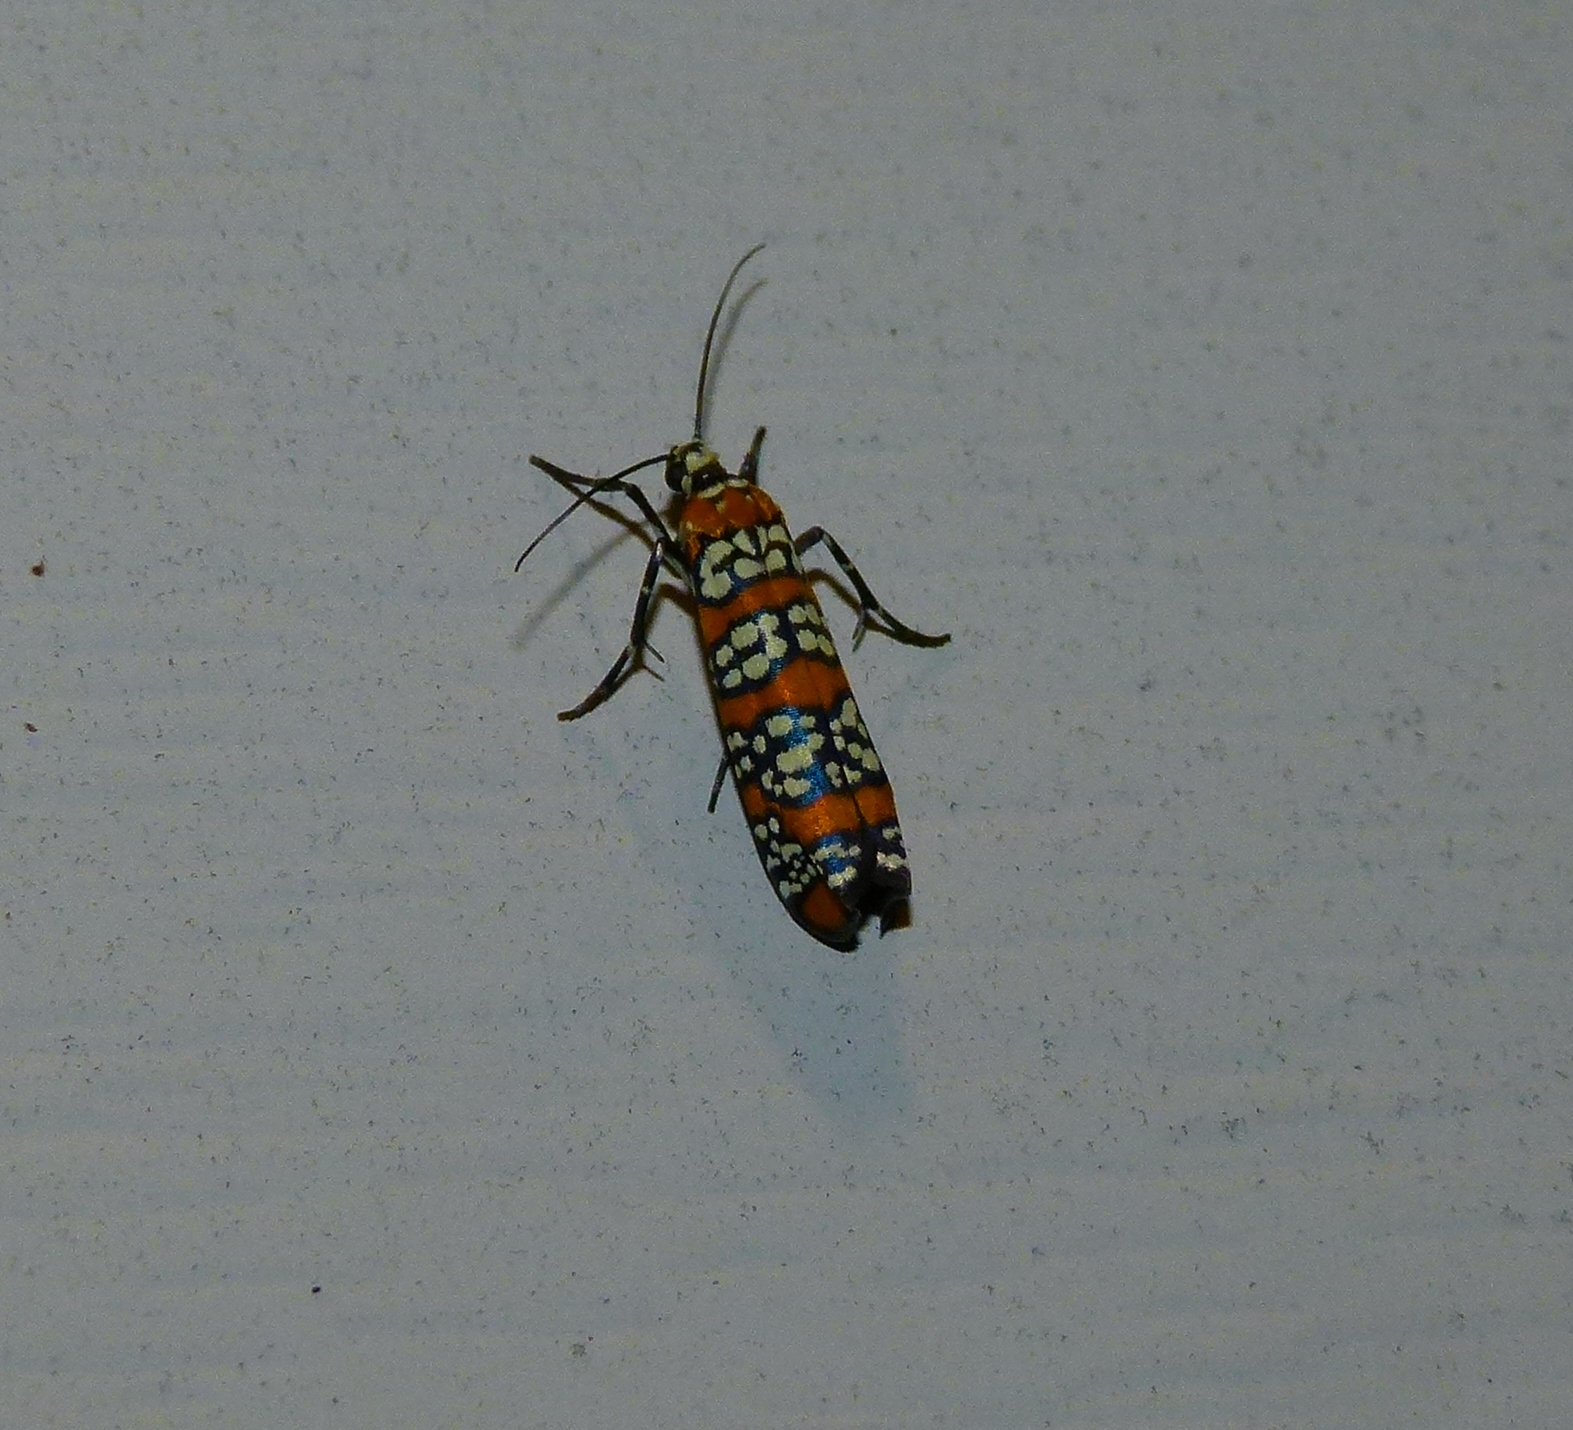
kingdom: Animalia
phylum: Arthropoda
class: Insecta
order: Lepidoptera
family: Attevidae
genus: Atteva
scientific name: Atteva punctella
